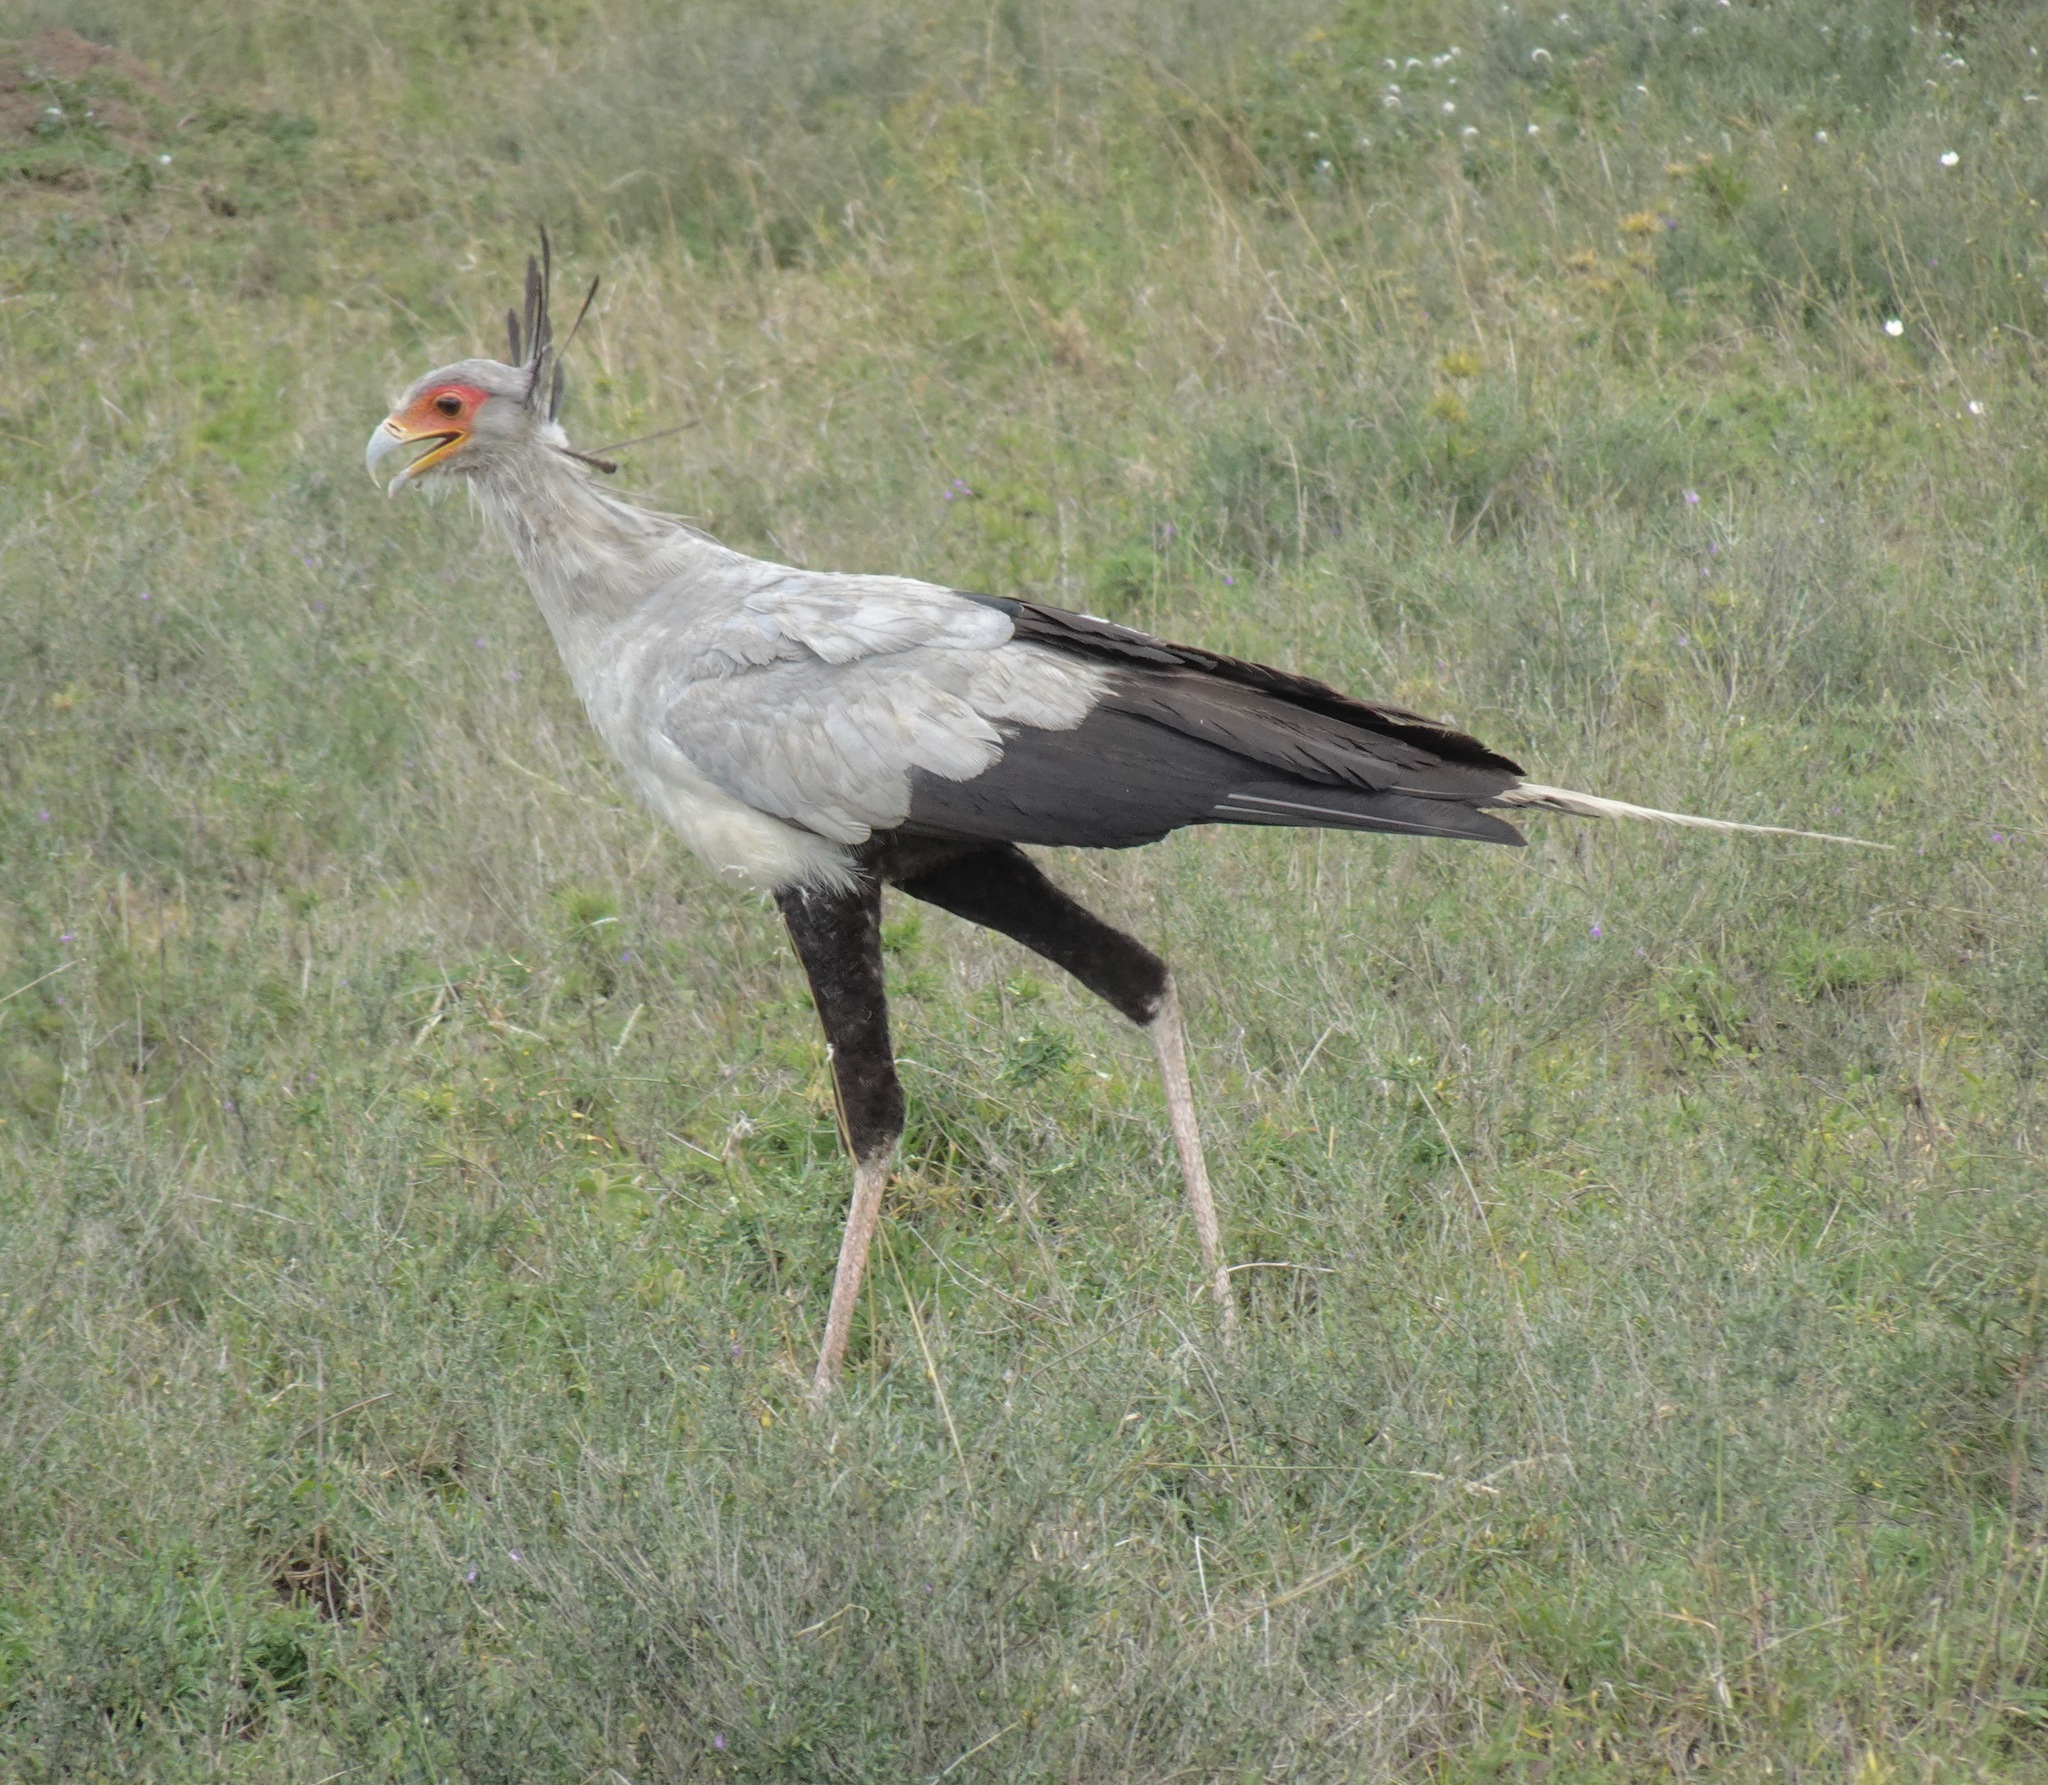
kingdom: Animalia
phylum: Chordata
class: Aves
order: Accipitriformes
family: Sagittariidae
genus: Sagittarius
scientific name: Sagittarius serpentarius
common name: Secretarybird
